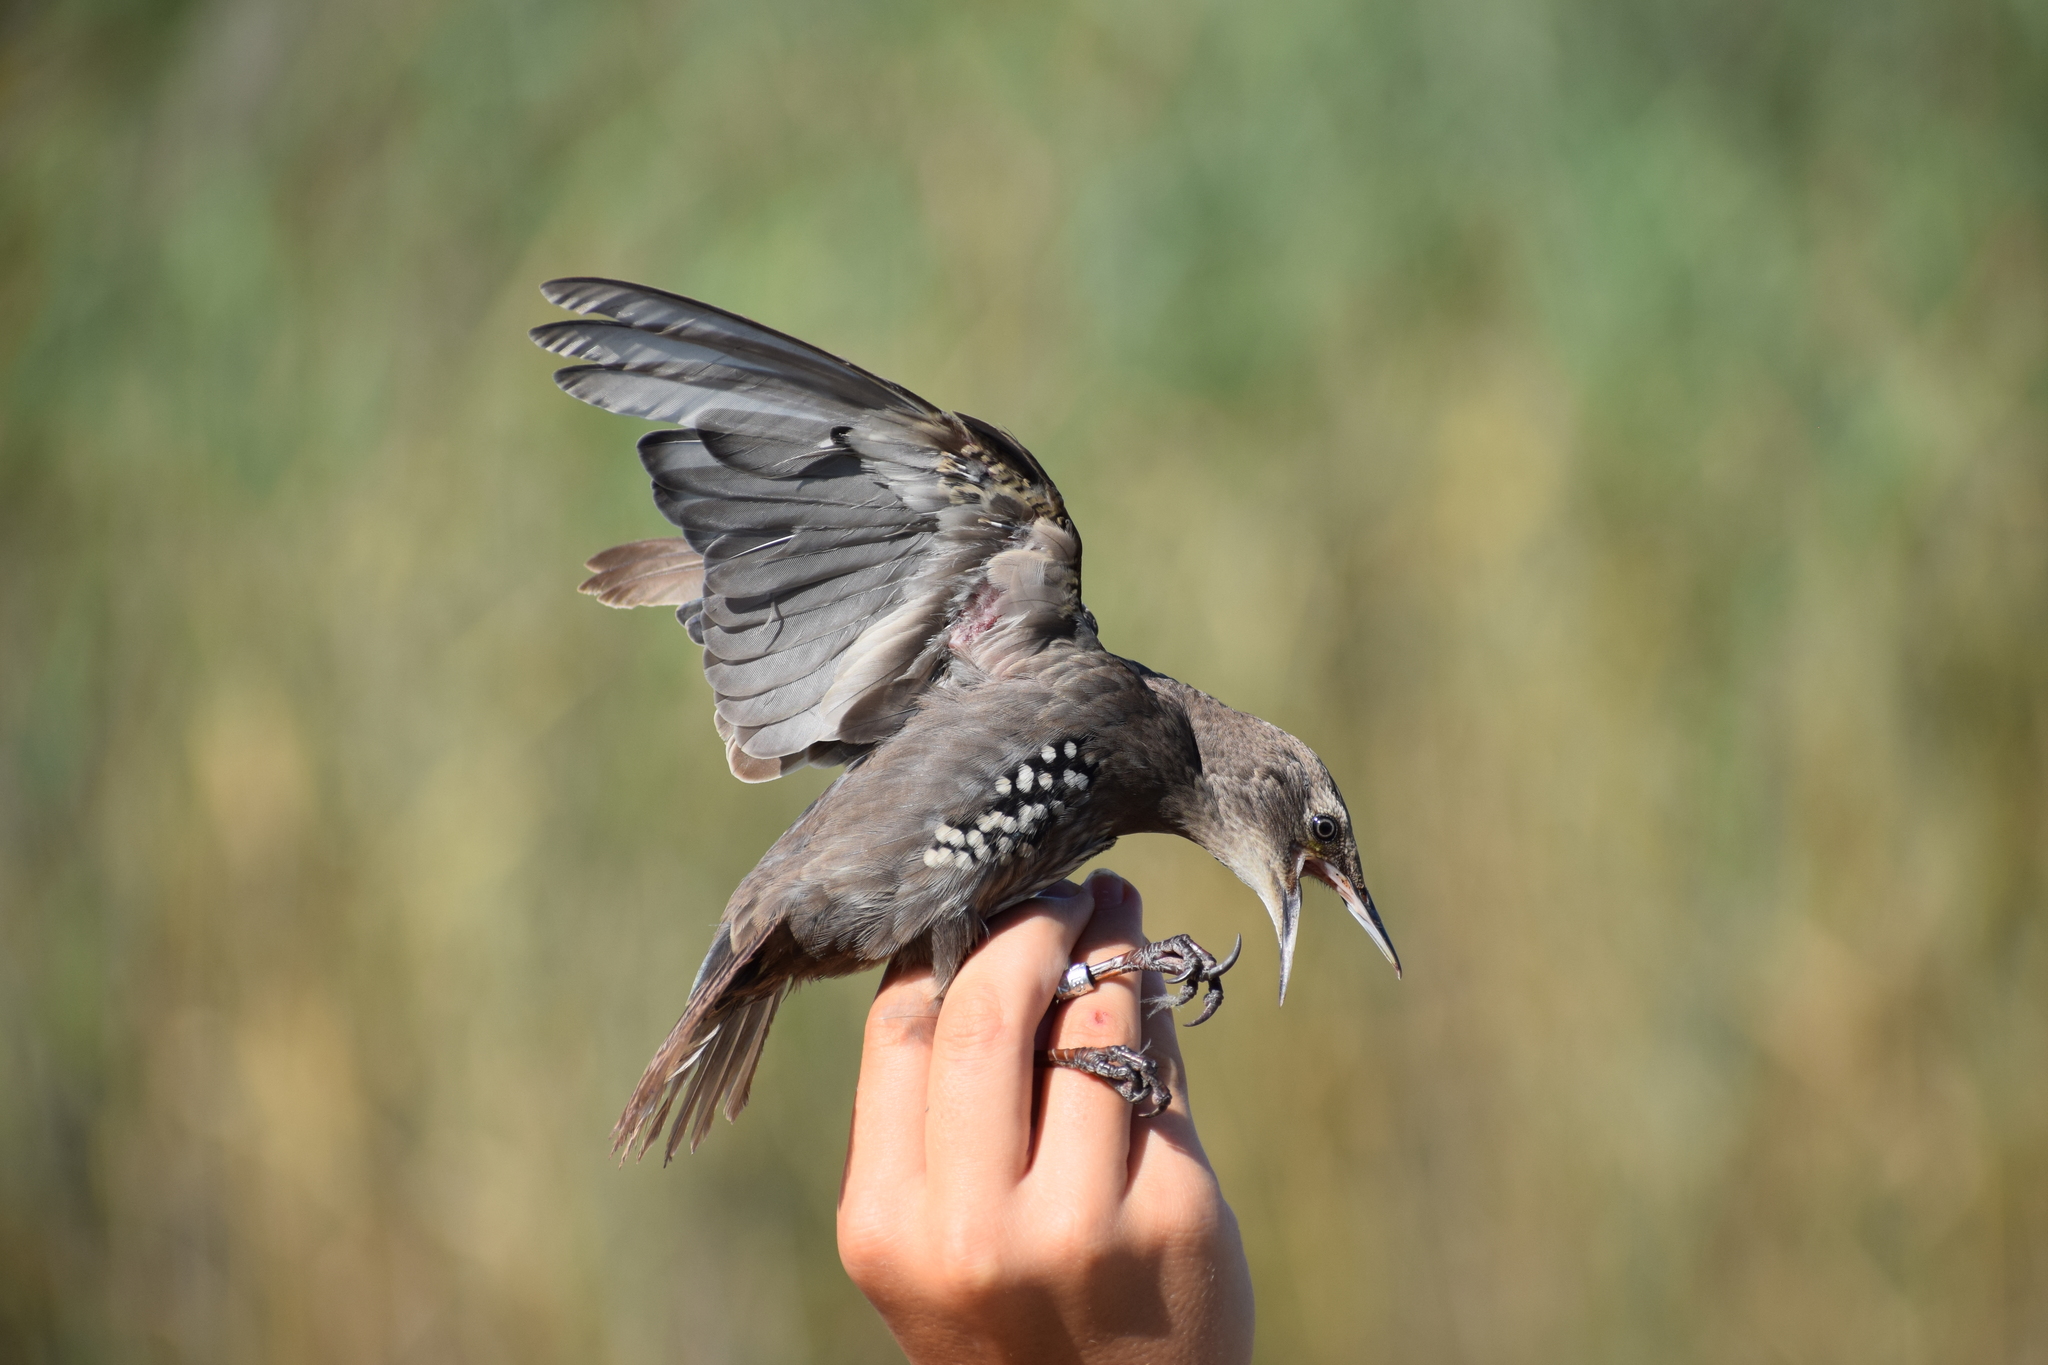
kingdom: Animalia
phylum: Chordata
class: Aves
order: Passeriformes
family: Sturnidae
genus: Sturnus
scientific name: Sturnus vulgaris
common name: Common starling
